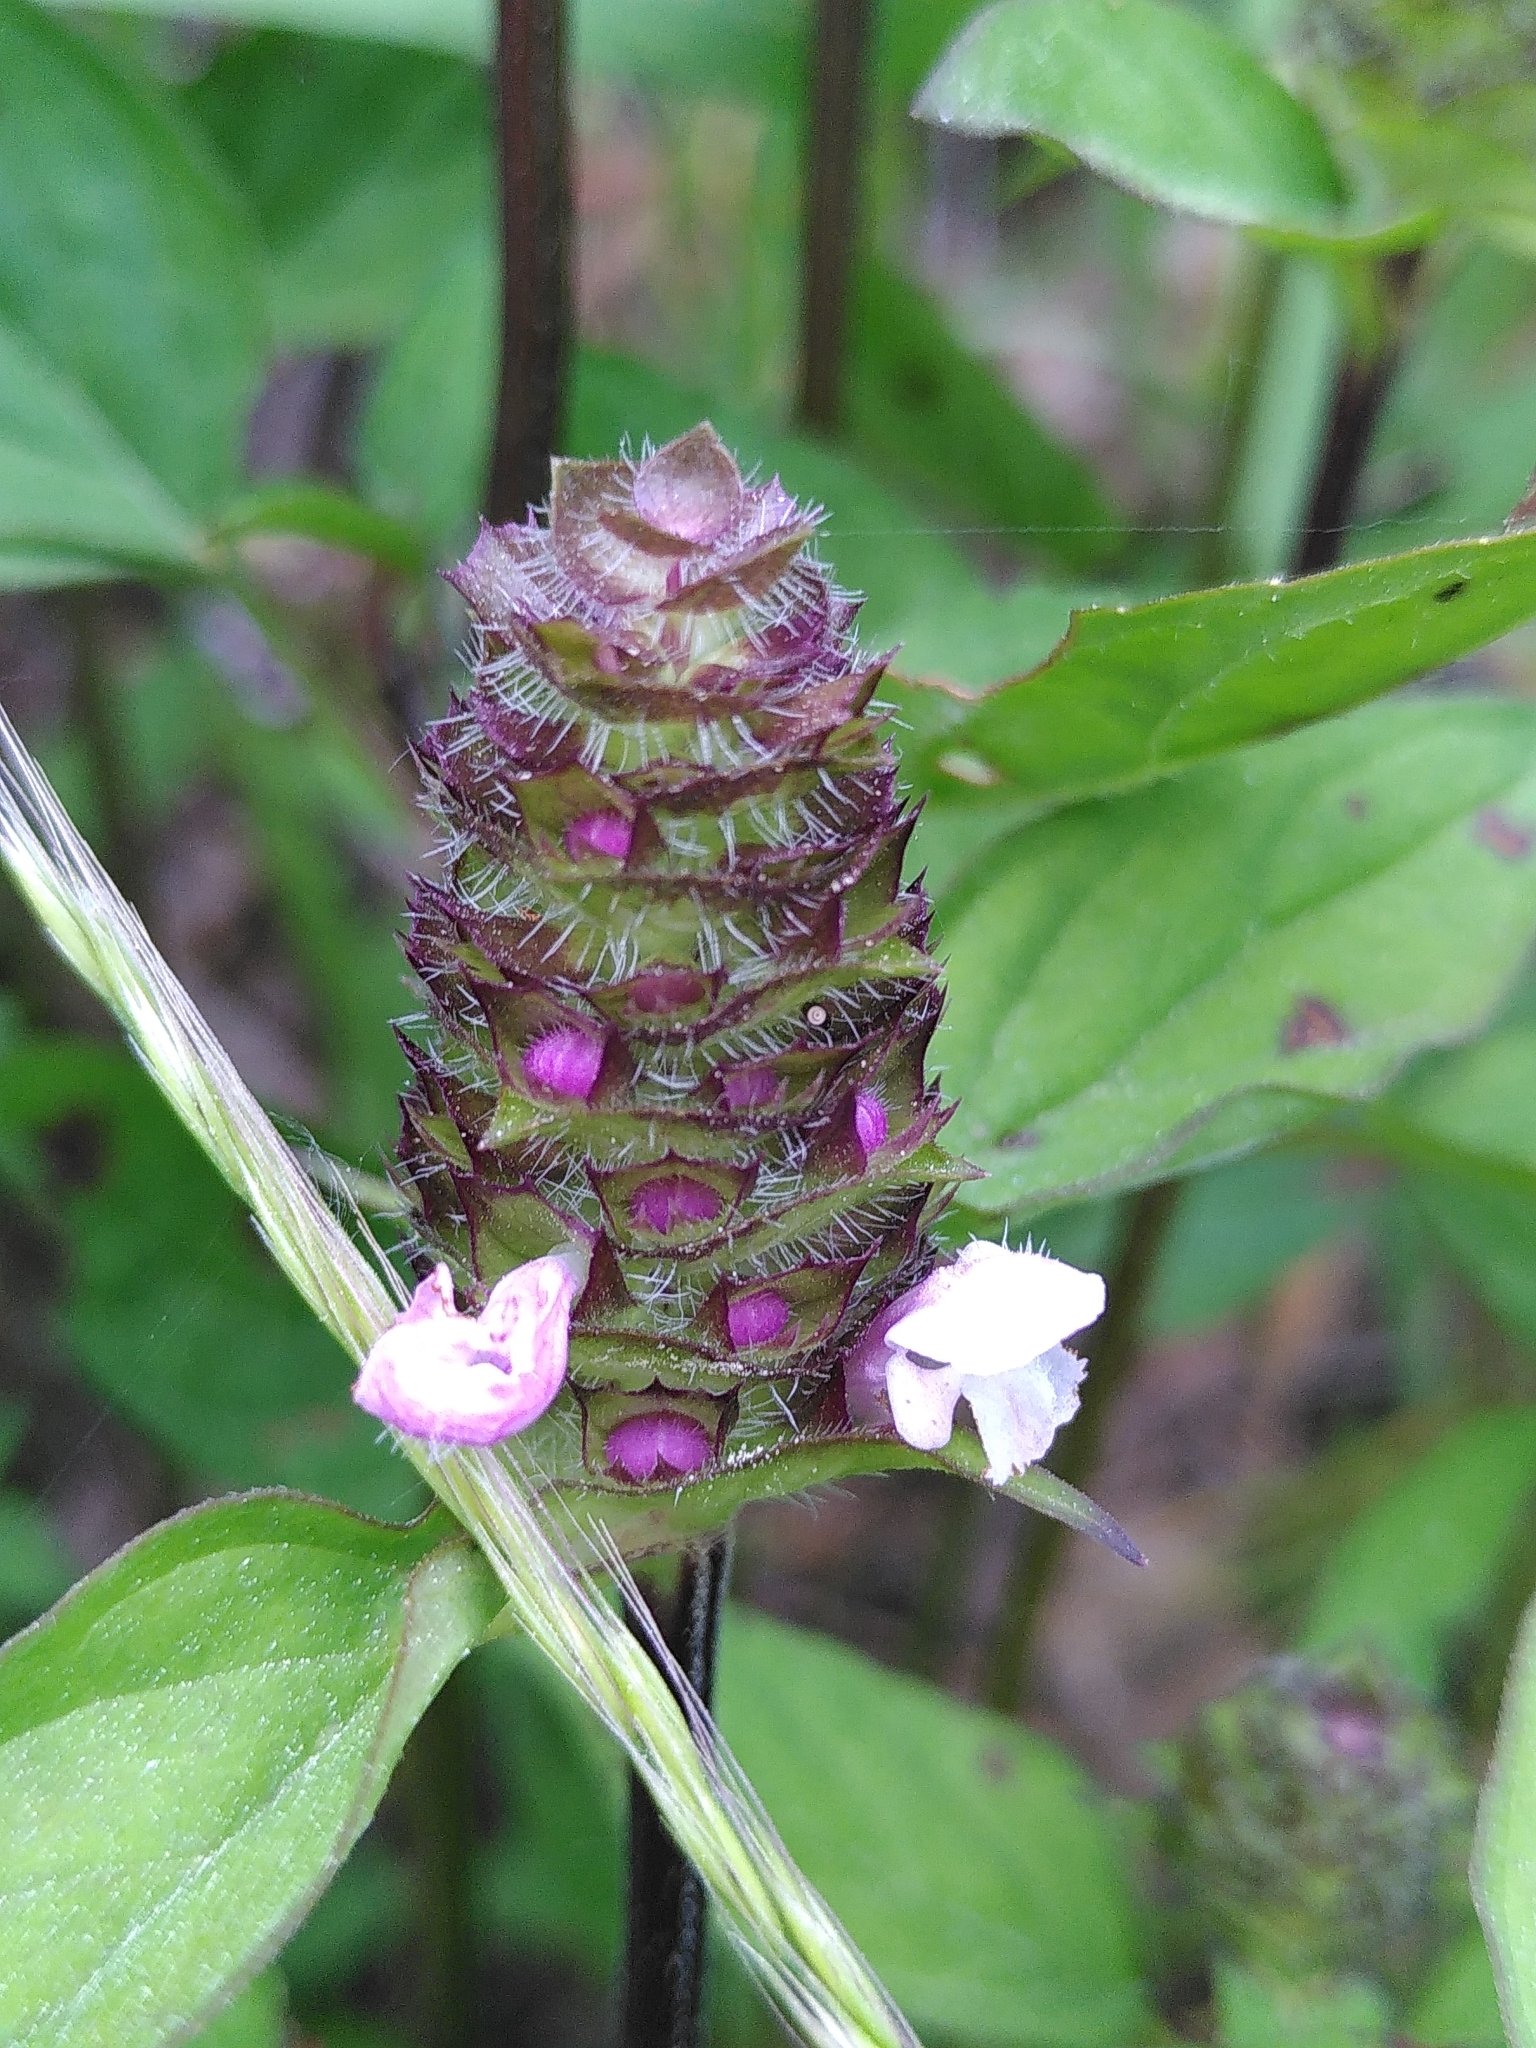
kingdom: Plantae
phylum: Tracheophyta
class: Magnoliopsida
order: Lamiales
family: Lamiaceae
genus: Prunella
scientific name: Prunella vulgaris
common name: Heal-all
